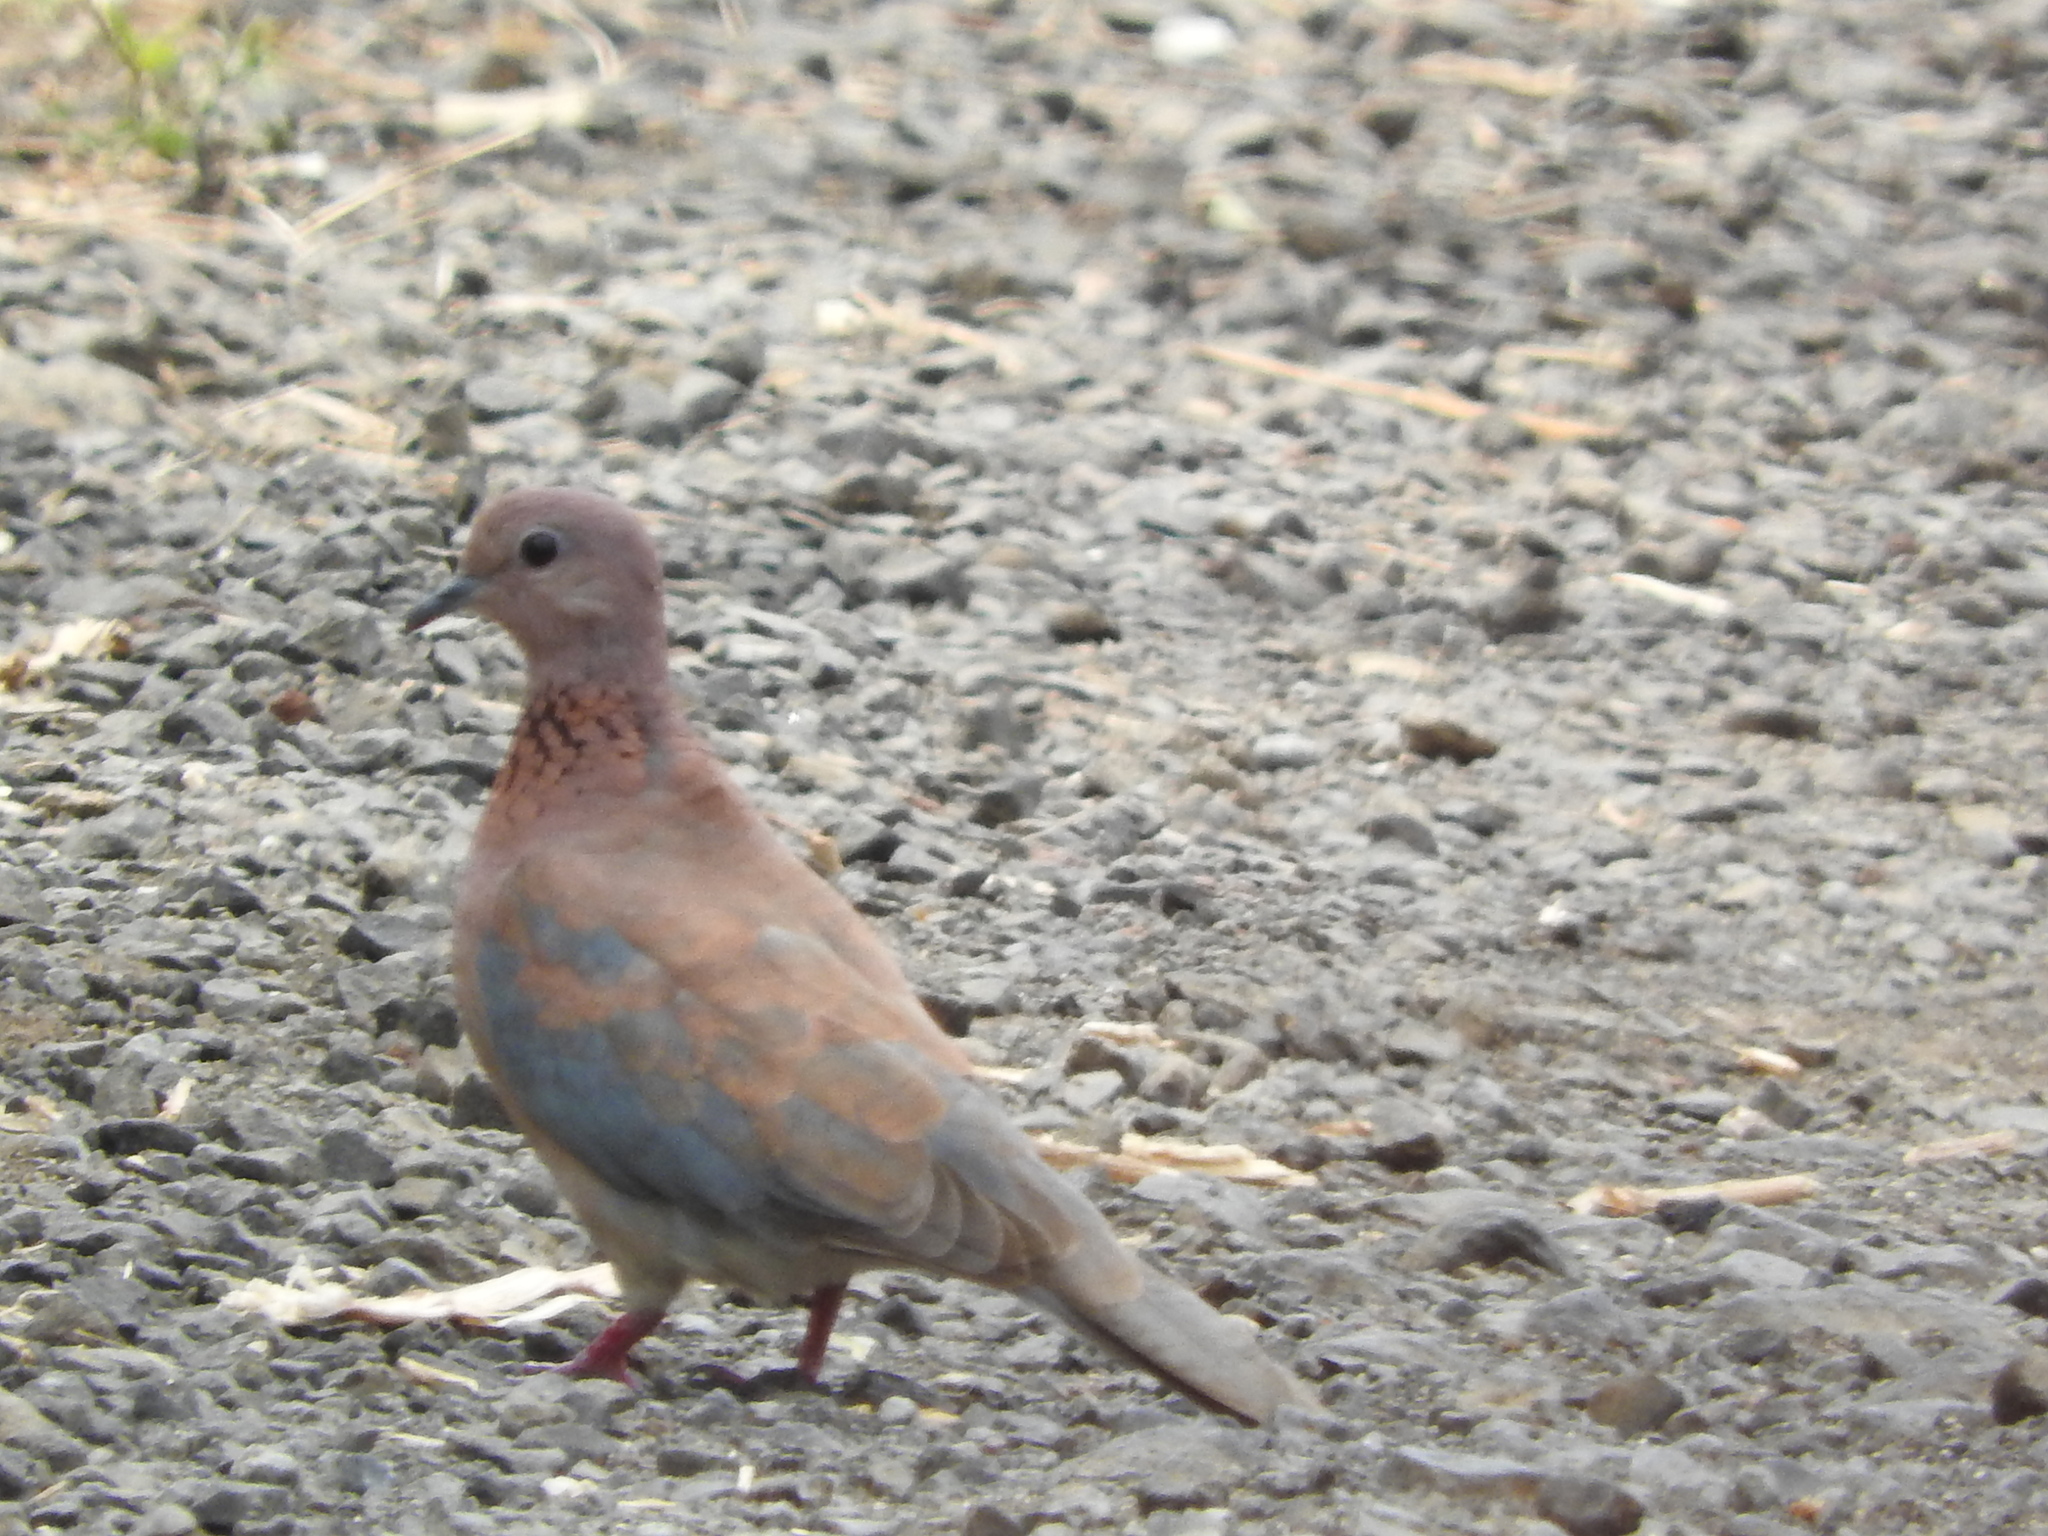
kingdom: Animalia
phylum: Chordata
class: Aves
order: Columbiformes
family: Columbidae
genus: Spilopelia
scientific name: Spilopelia senegalensis
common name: Laughing dove
